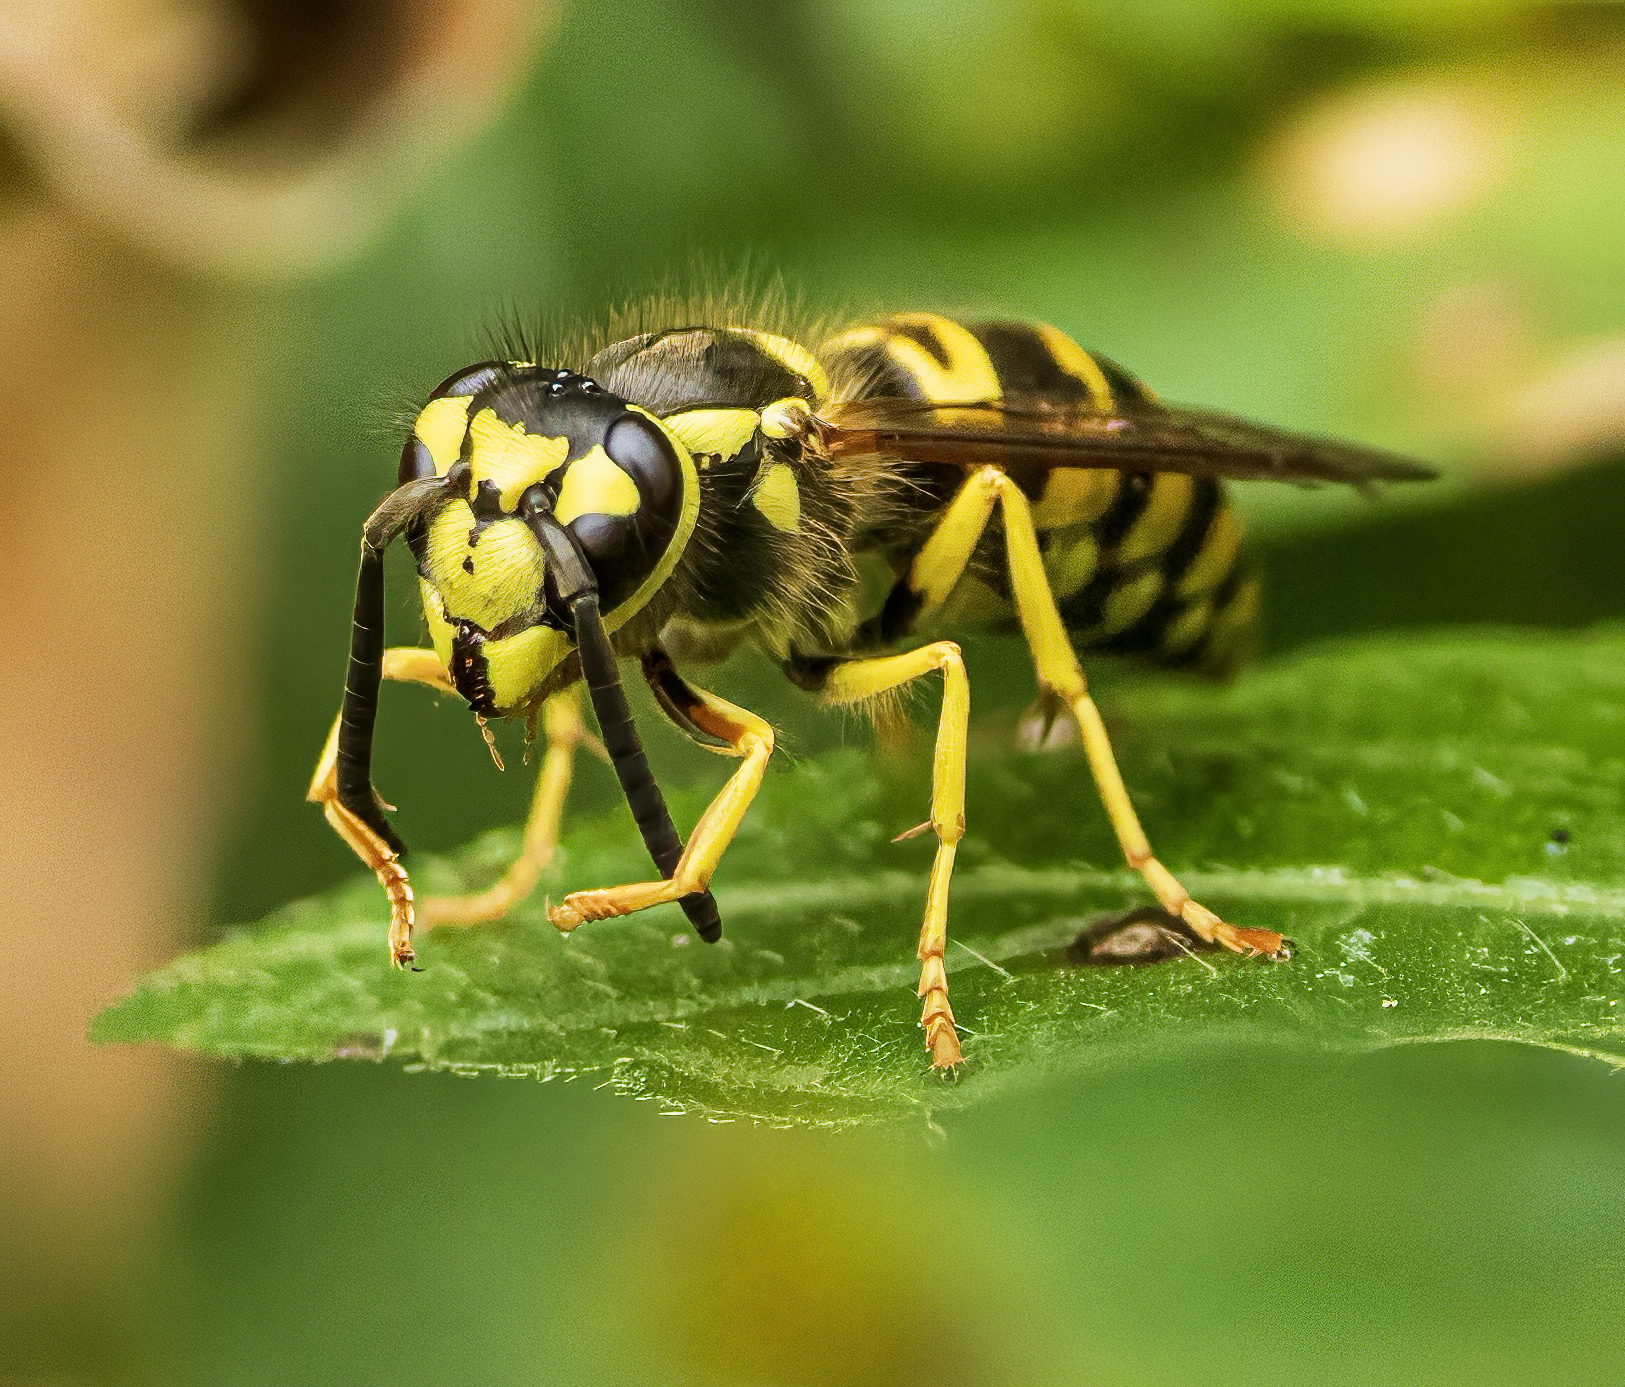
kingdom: Animalia
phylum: Arthropoda
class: Insecta
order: Hymenoptera
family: Vespidae
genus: Vespula
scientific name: Vespula maculifrons
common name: Eastern yellowjacket
